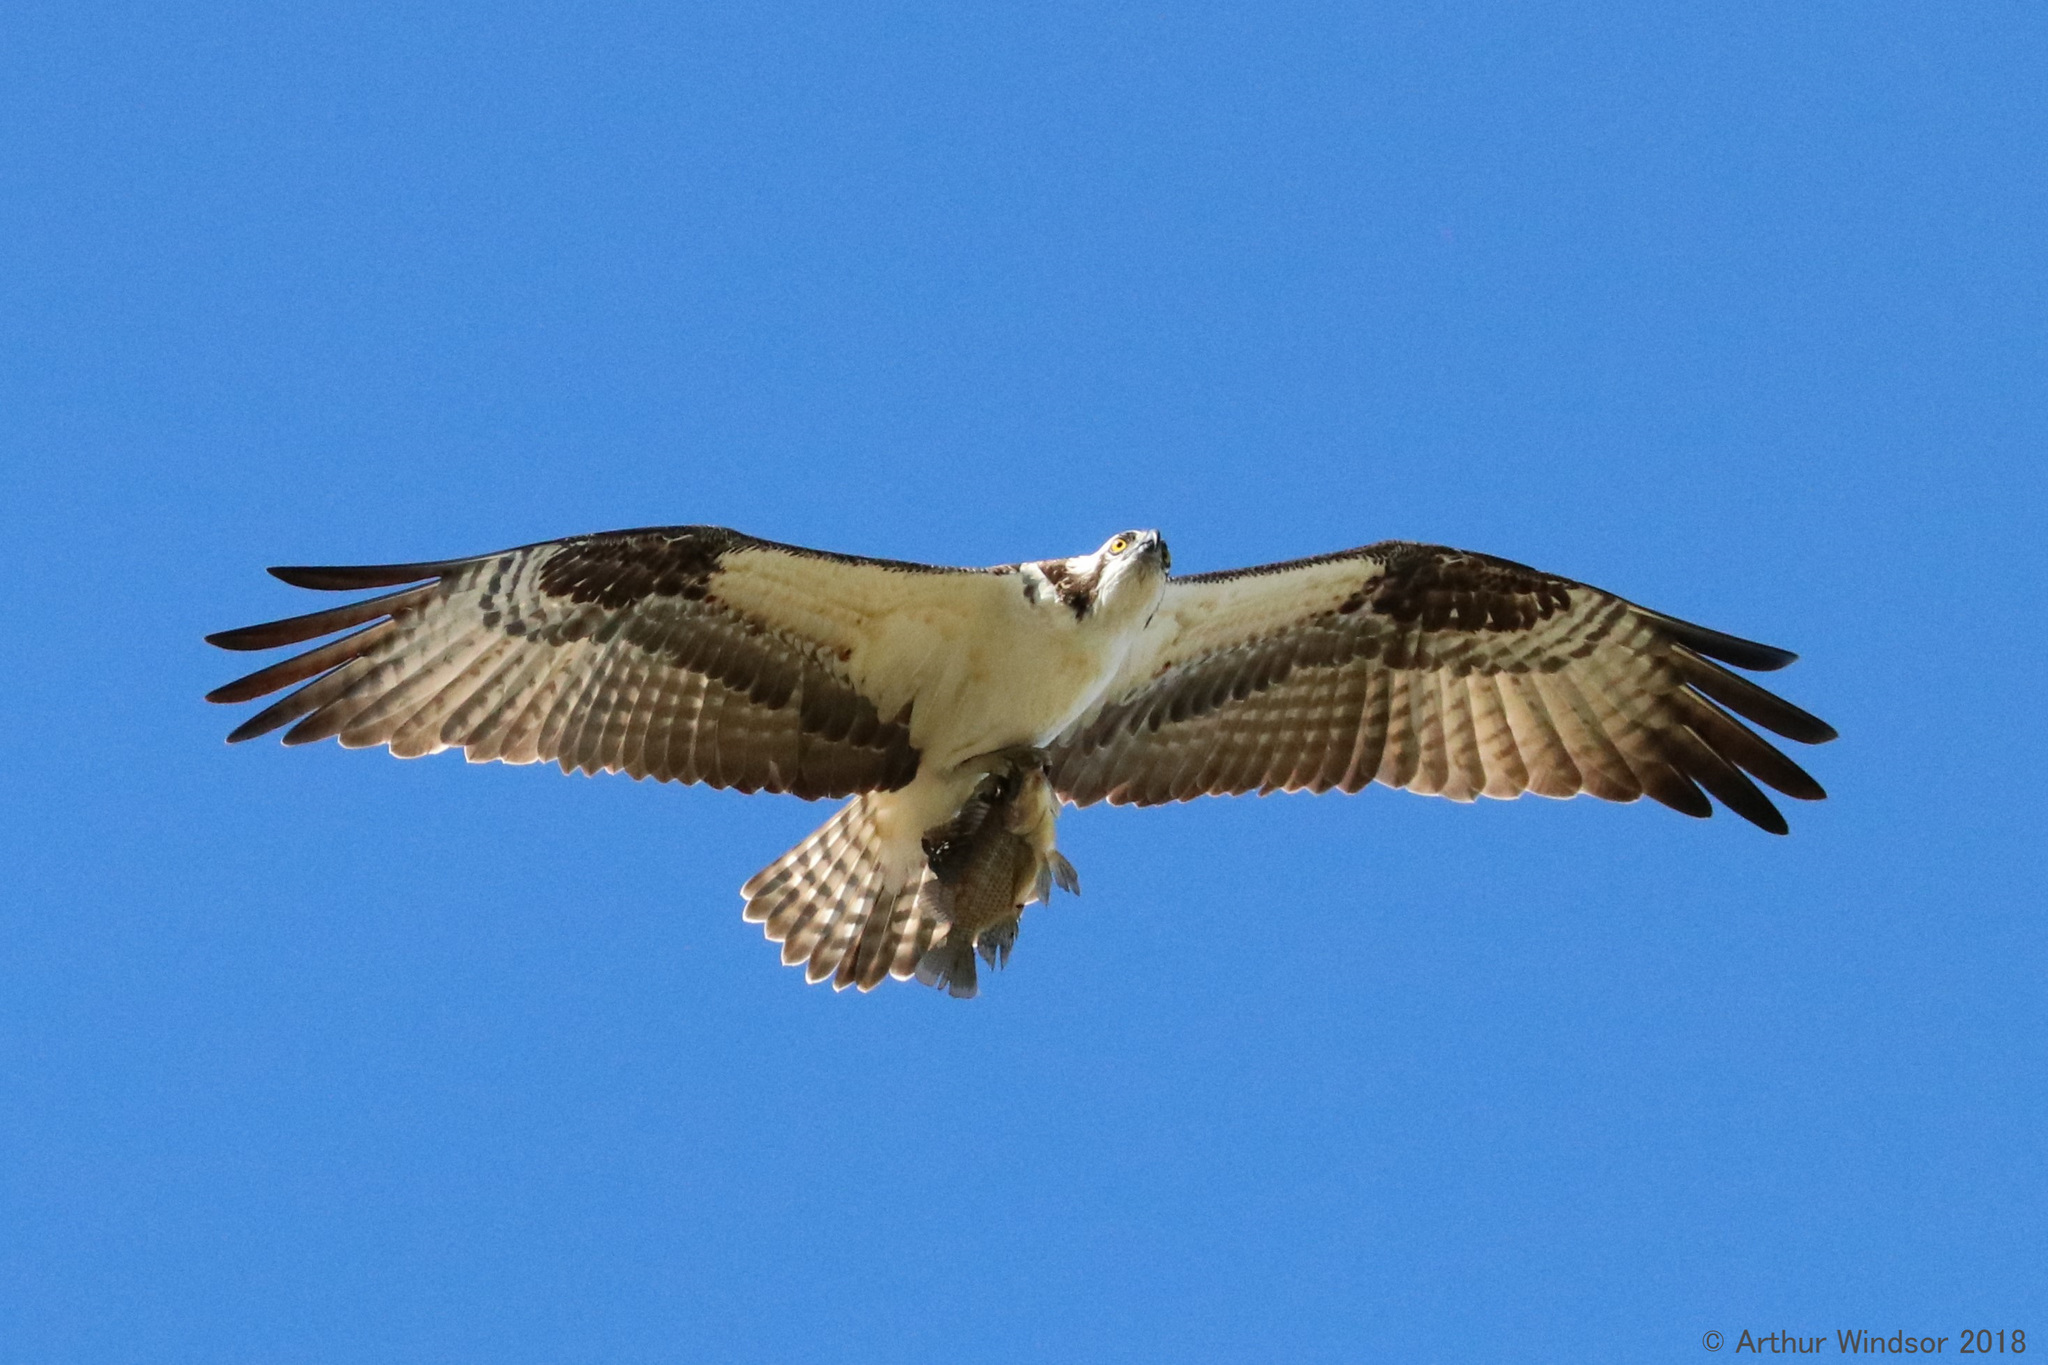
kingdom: Animalia
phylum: Chordata
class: Aves
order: Accipitriformes
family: Pandionidae
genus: Pandion
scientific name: Pandion haliaetus
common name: Osprey
